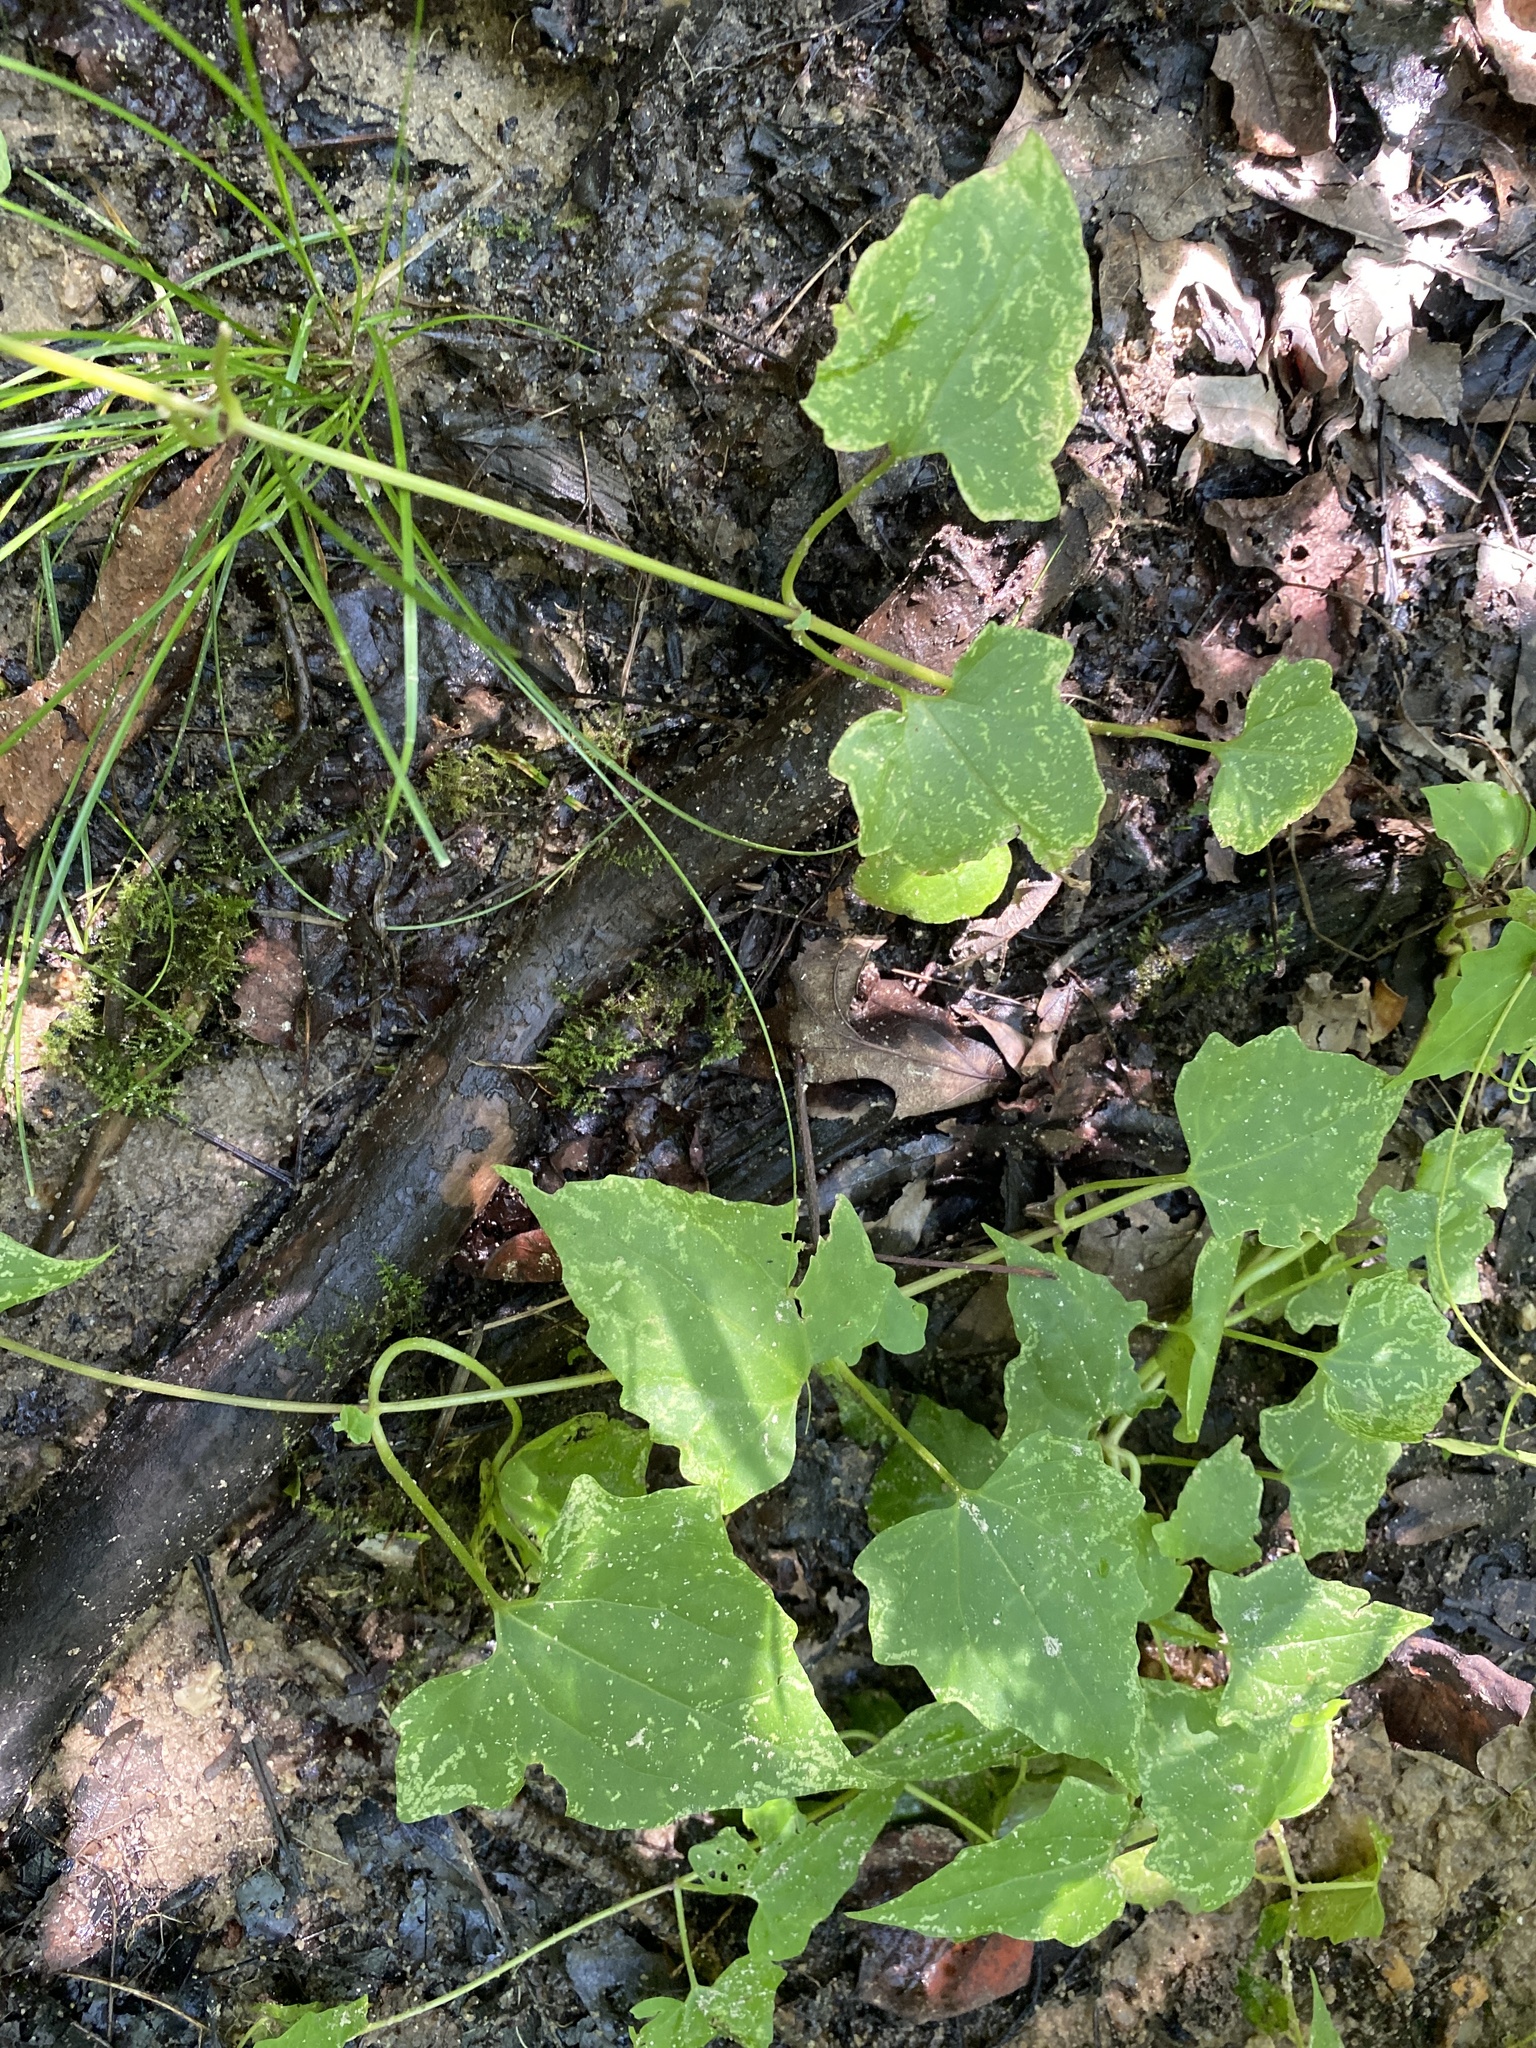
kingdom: Plantae
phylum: Tracheophyta
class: Magnoliopsida
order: Asterales
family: Asteraceae
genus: Mikania
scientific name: Mikania scandens
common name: Climbing hempvine
